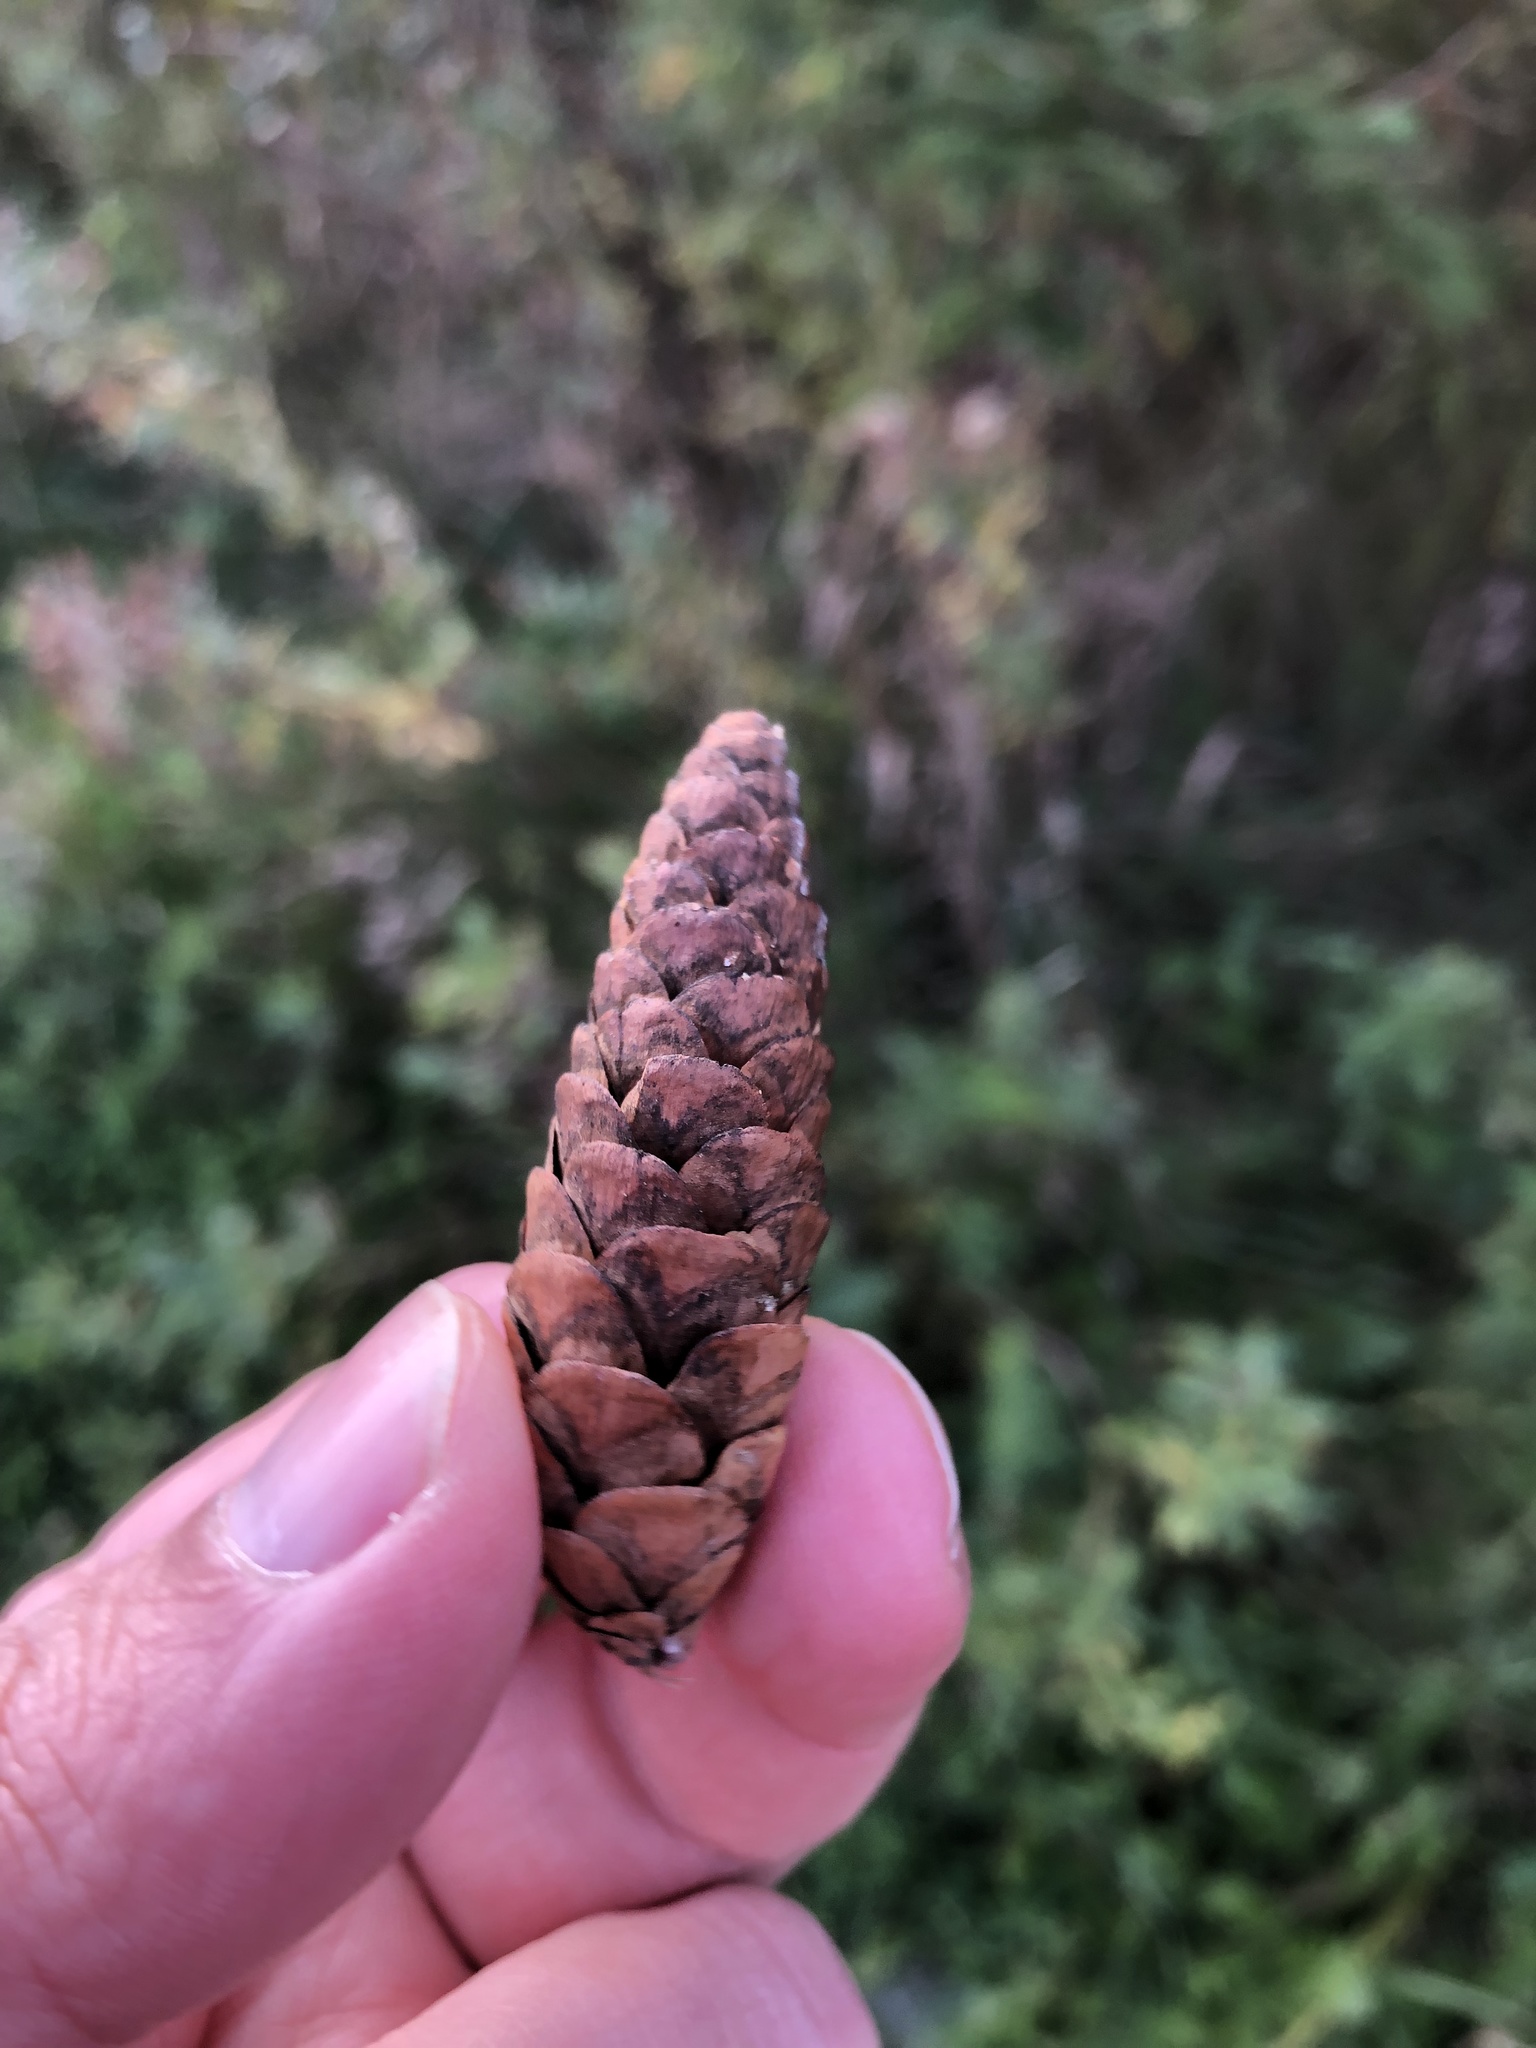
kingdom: Plantae
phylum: Tracheophyta
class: Pinopsida
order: Pinales
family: Pinaceae
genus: Picea
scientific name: Picea glauca
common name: White spruce
